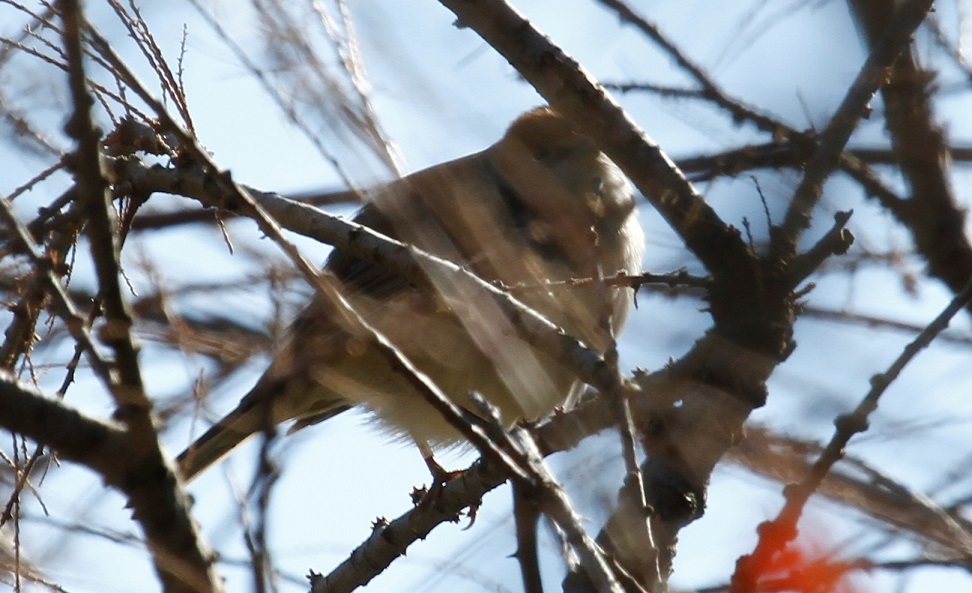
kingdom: Animalia
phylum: Chordata
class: Aves
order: Passeriformes
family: Sylviidae
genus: Sylvia
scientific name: Sylvia atricapilla
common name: Eurasian blackcap
